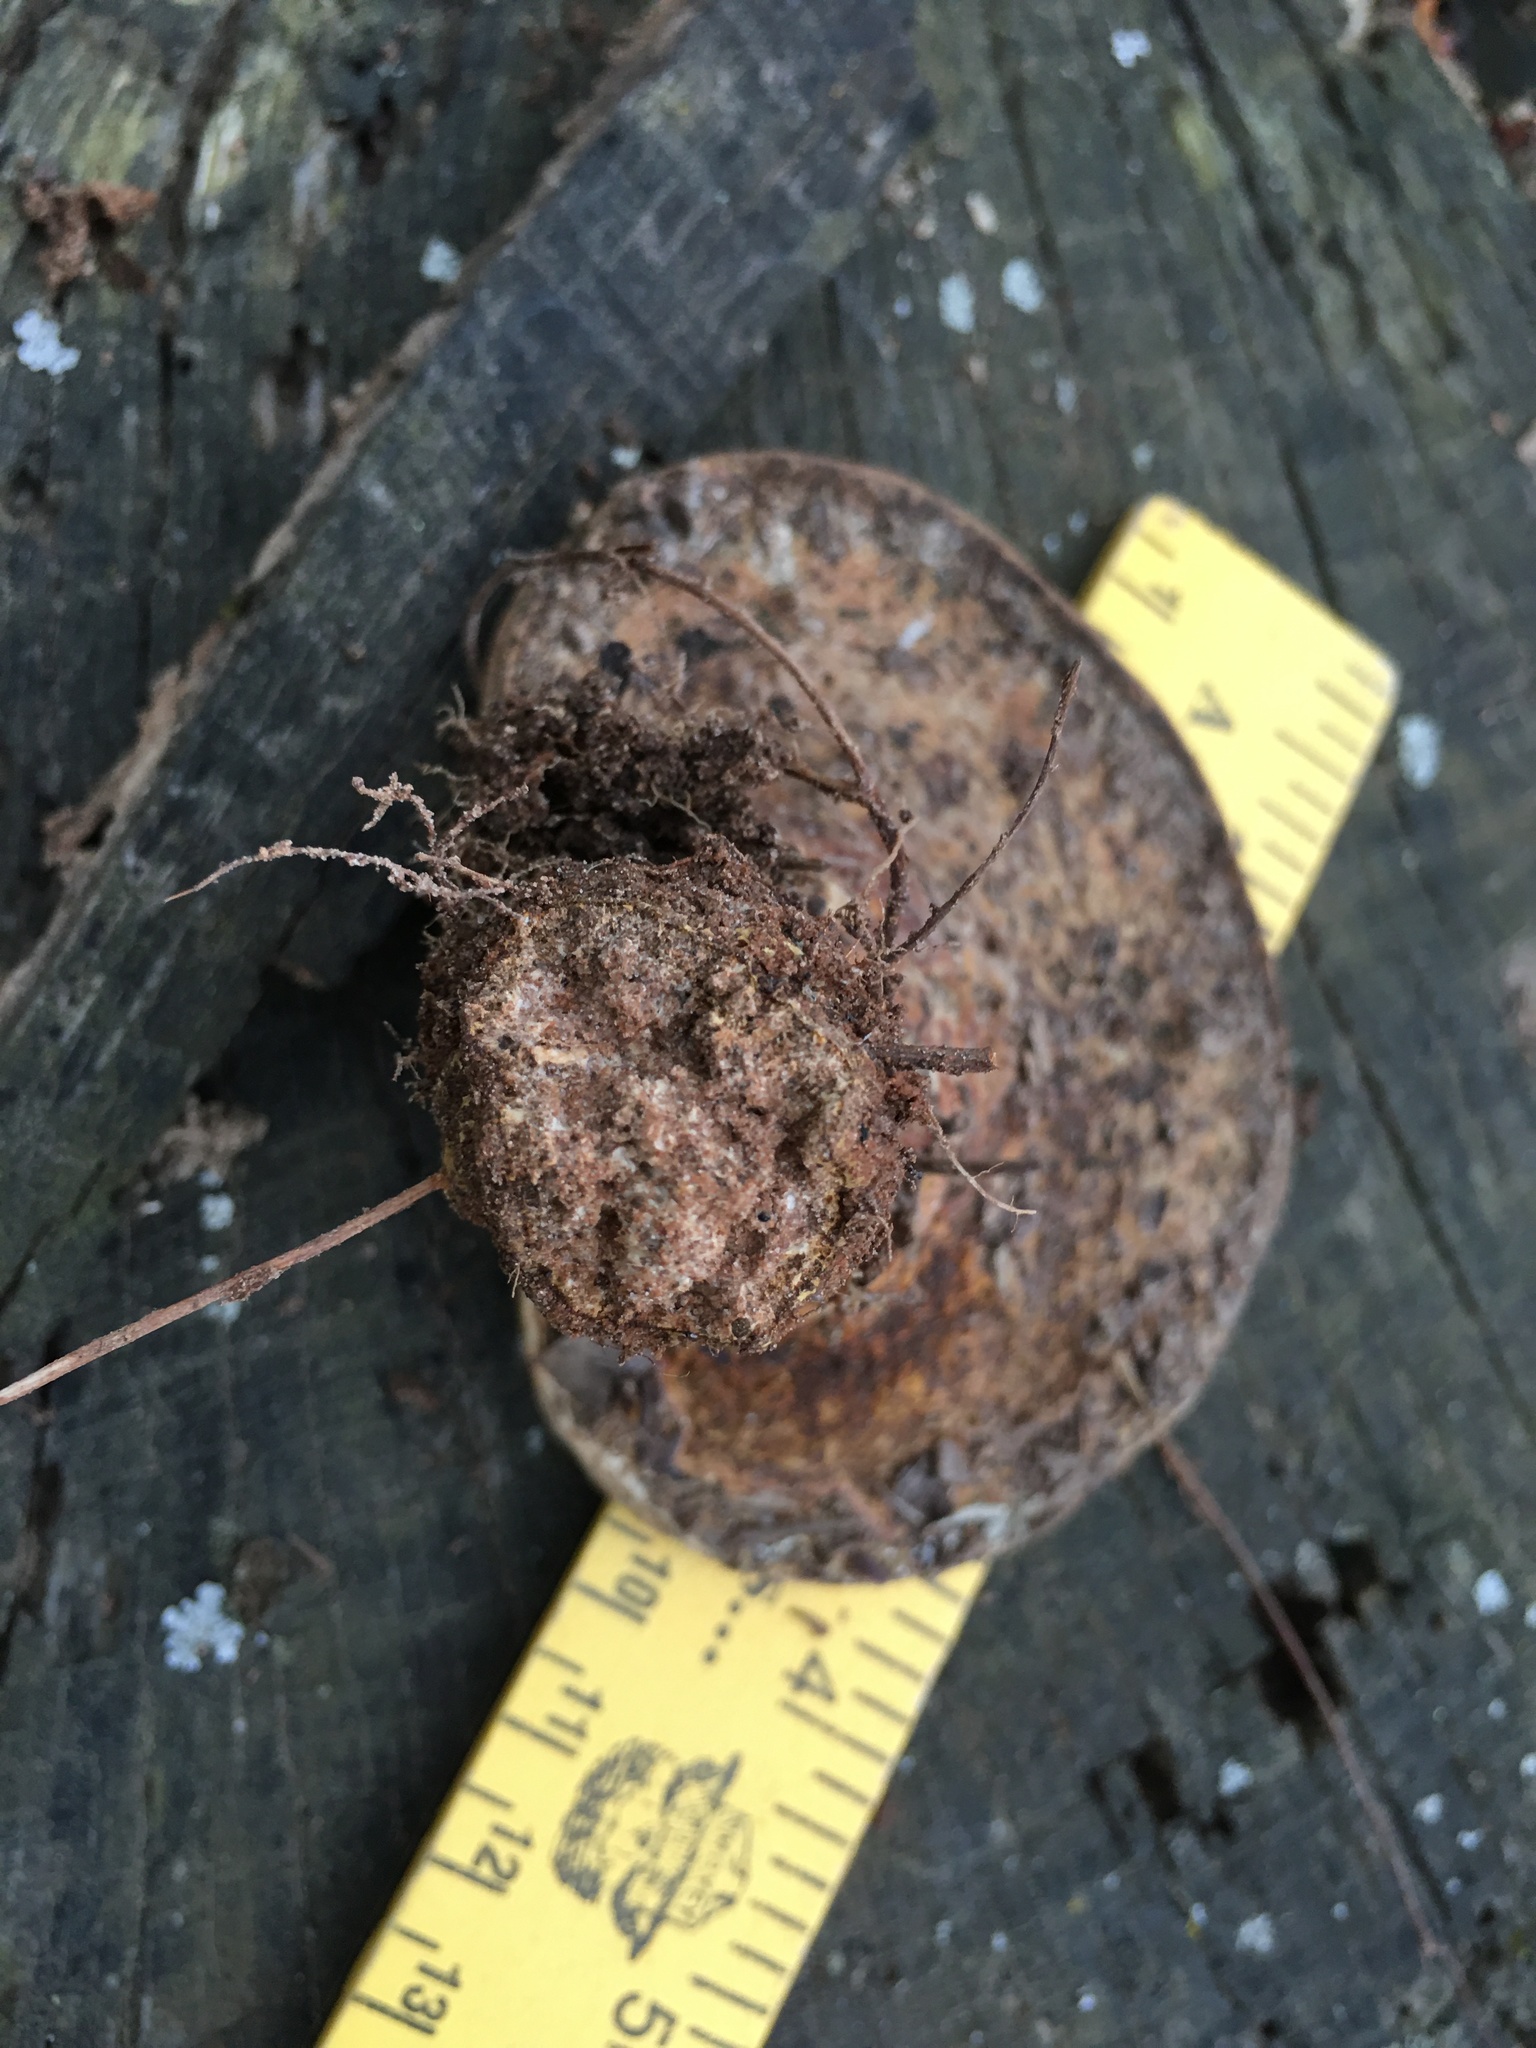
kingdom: Fungi
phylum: Basidiomycota
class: Agaricomycetes
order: Polyporales
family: Polyporaceae
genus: Ganoderma
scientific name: Ganoderma curtisii
